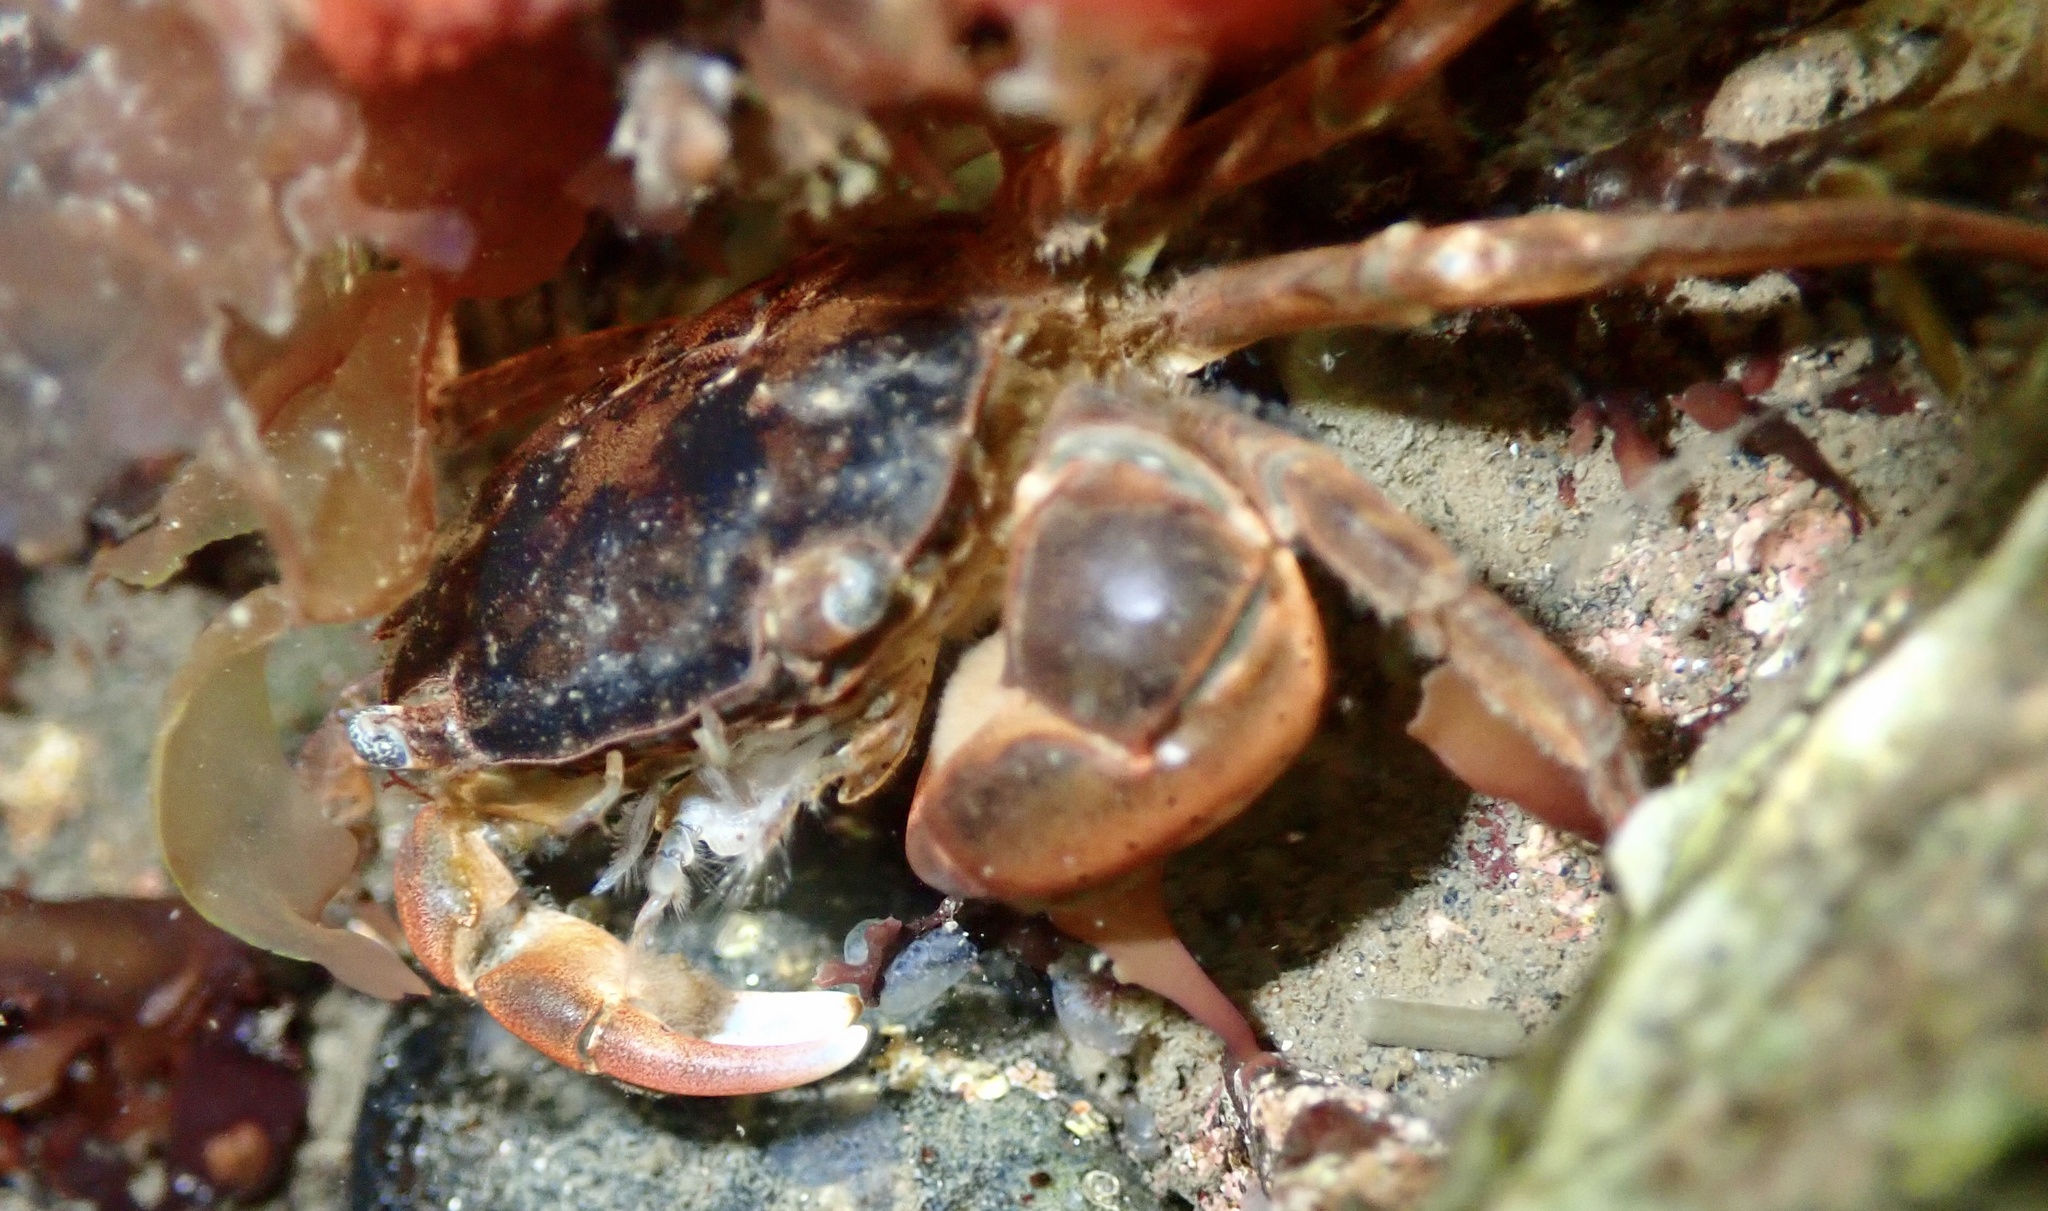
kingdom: Animalia
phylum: Arthropoda
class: Malacostraca
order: Decapoda
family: Varunidae
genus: Hemigrapsus
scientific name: Hemigrapsus sanguineus
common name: Asian shore crab
